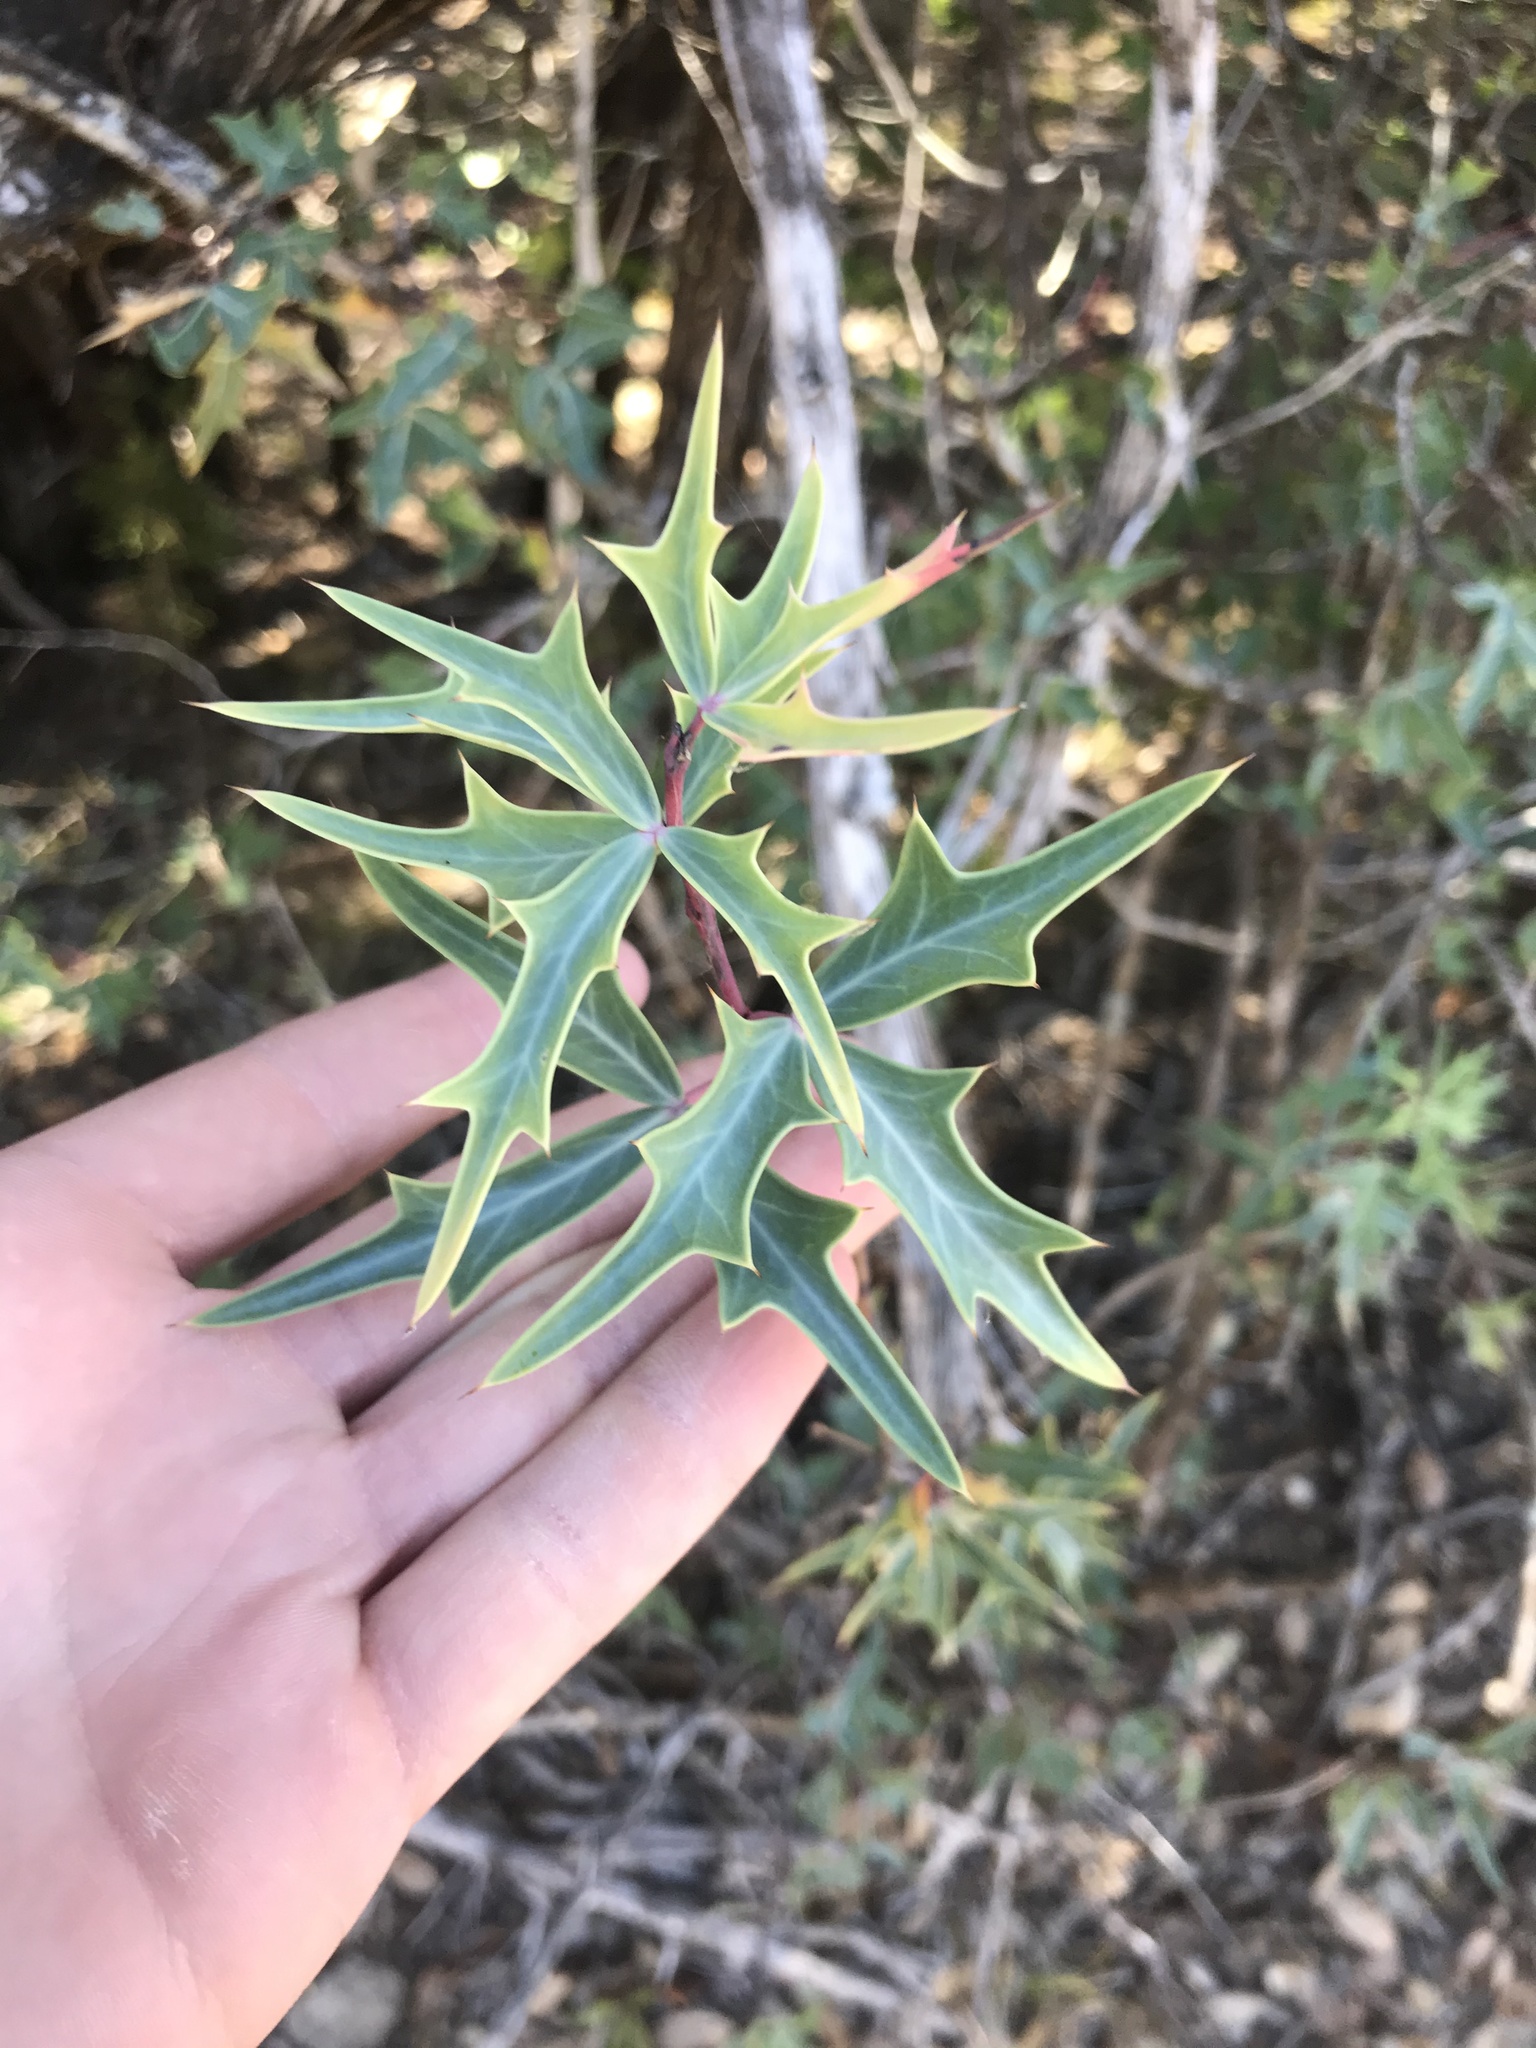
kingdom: Plantae
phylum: Tracheophyta
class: Magnoliopsida
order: Ranunculales
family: Berberidaceae
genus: Alloberberis
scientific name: Alloberberis trifoliolata
